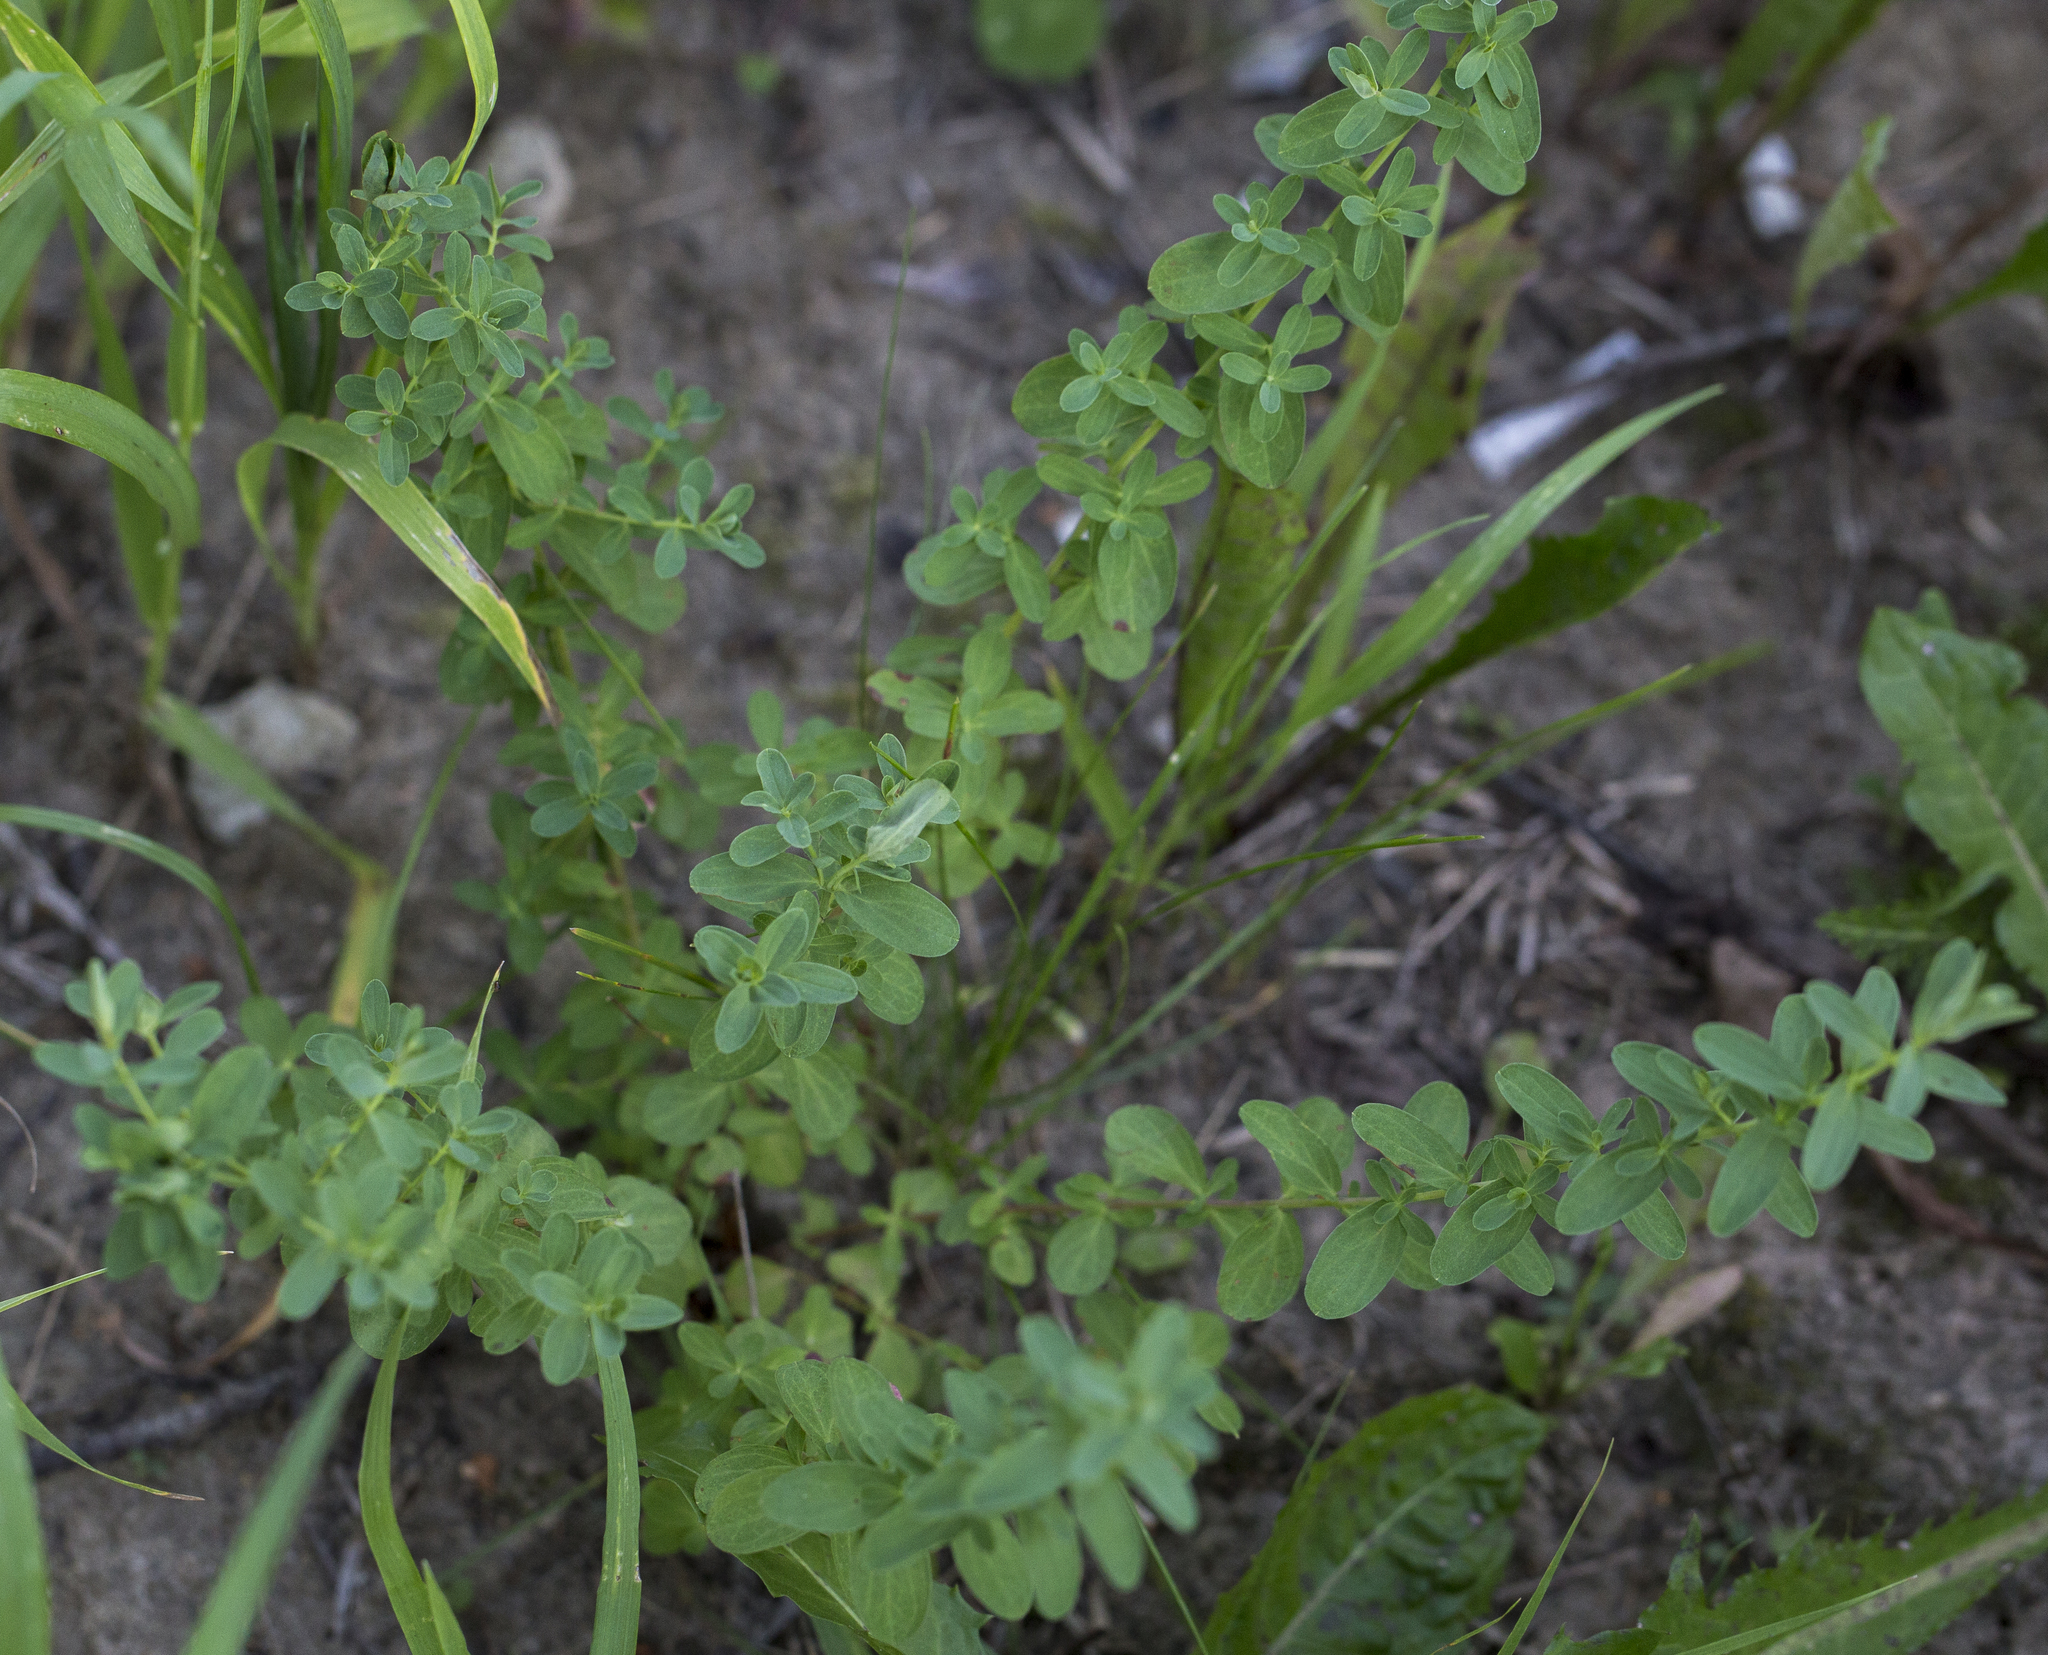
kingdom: Plantae
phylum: Tracheophyta
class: Magnoliopsida
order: Malpighiales
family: Hypericaceae
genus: Hypericum
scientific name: Hypericum perforatum
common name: Common st. johnswort
